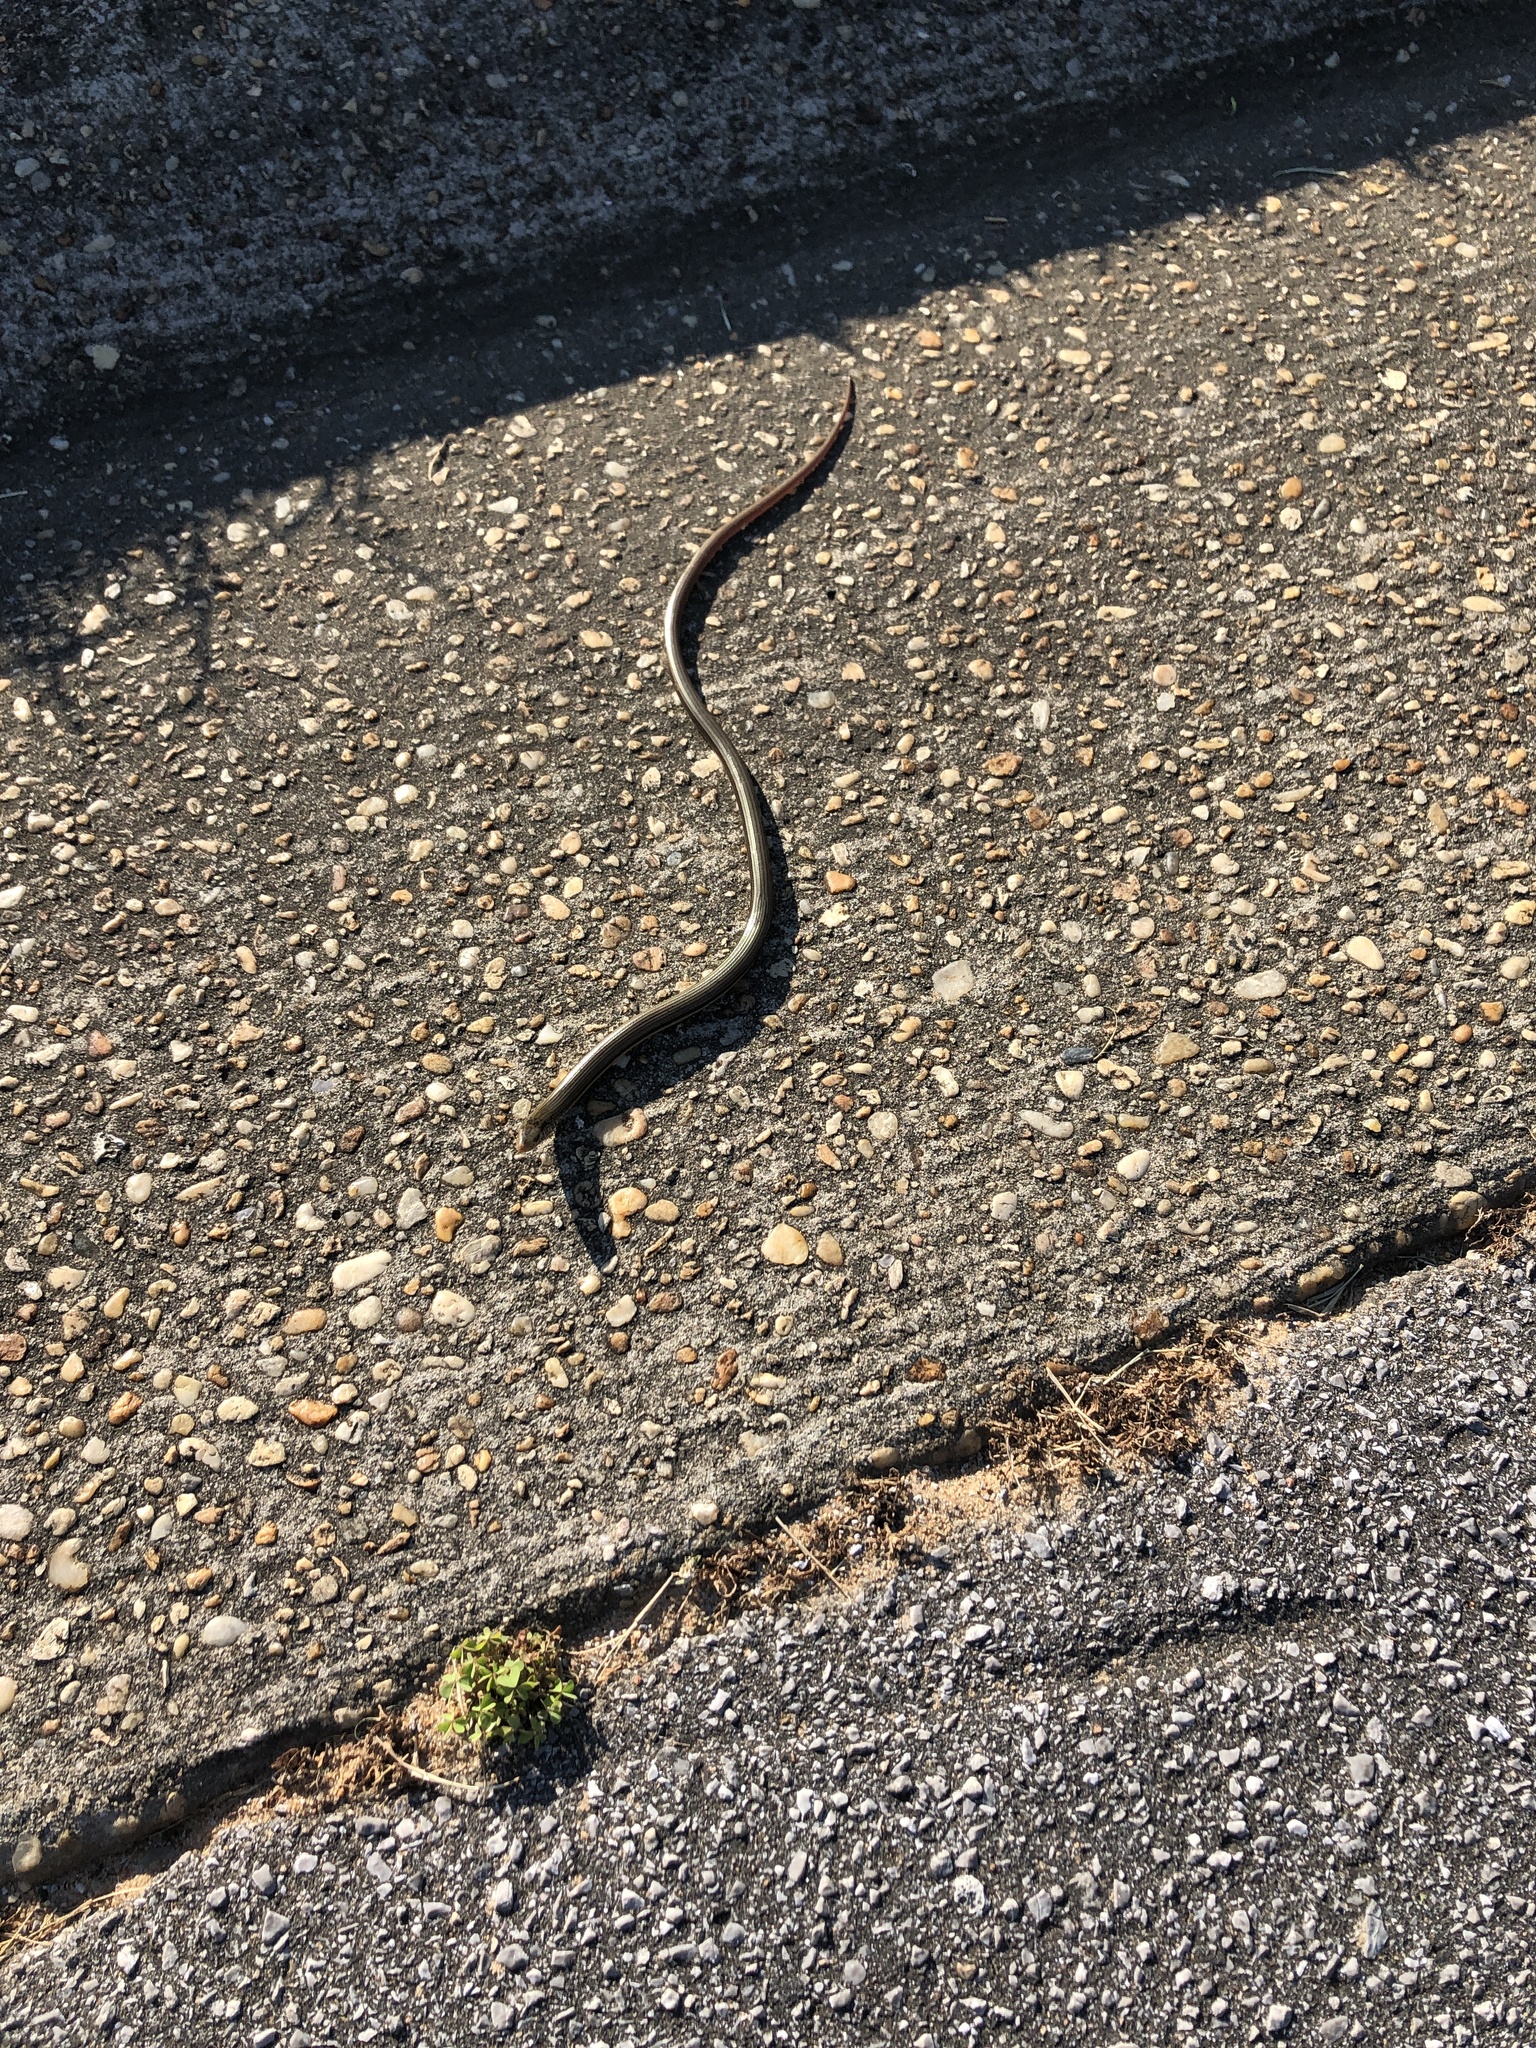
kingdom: Animalia
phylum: Chordata
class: Squamata
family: Anguidae
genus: Ophisaurus
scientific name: Ophisaurus ventralis
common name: Eastern glass lizard
